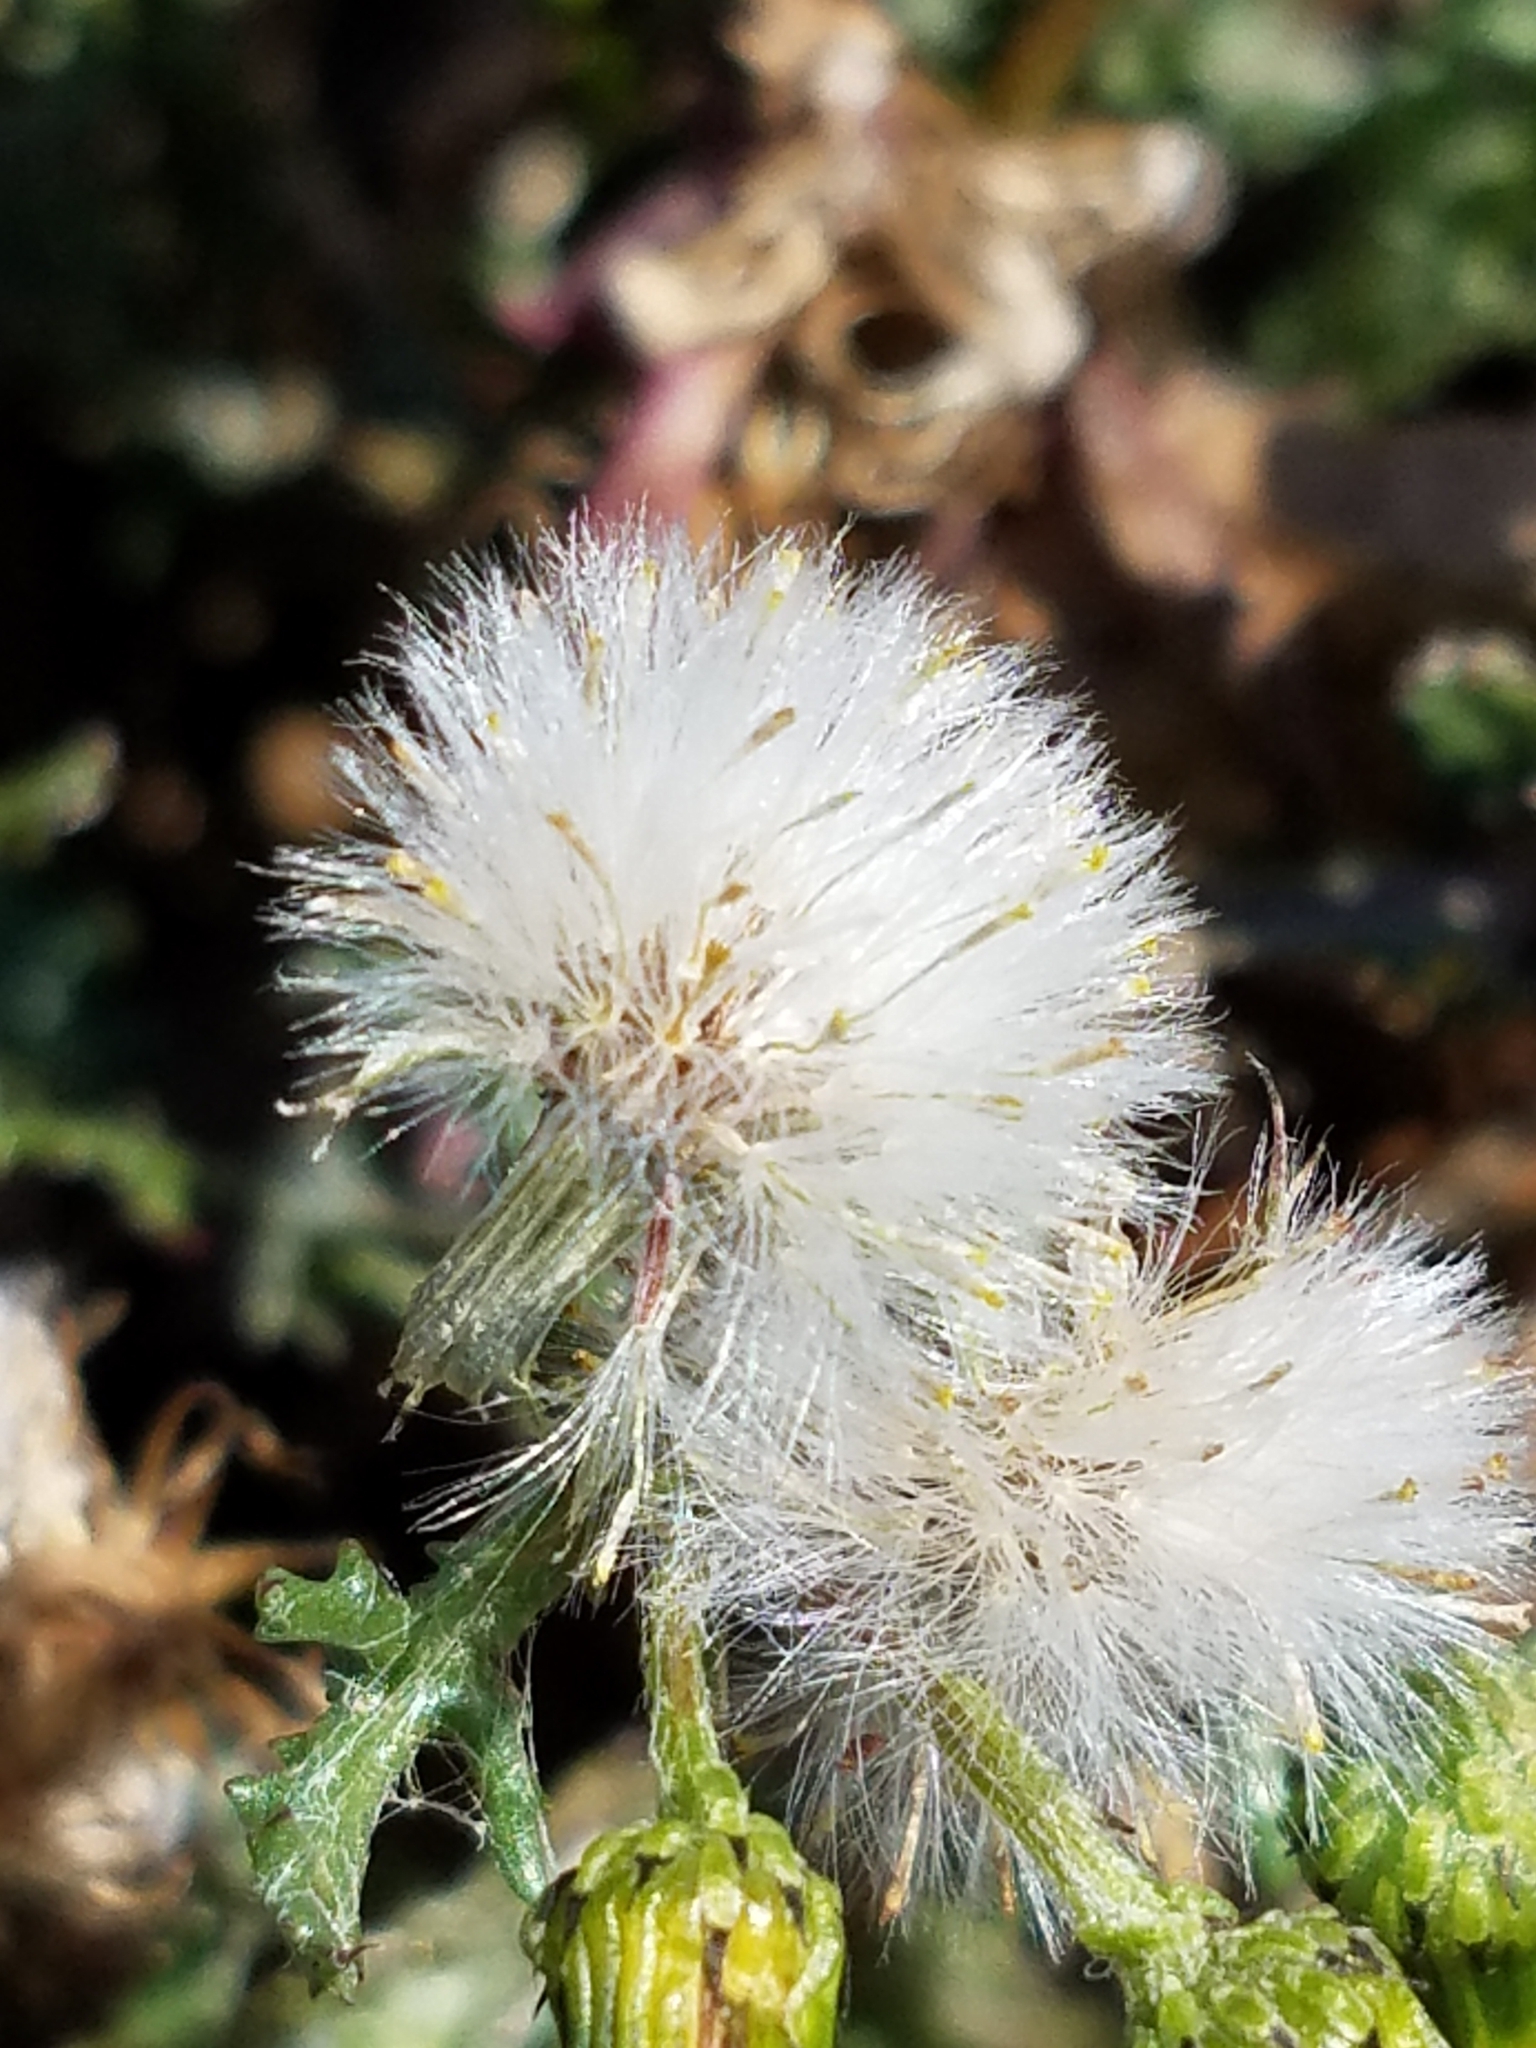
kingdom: Plantae
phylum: Tracheophyta
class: Magnoliopsida
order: Asterales
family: Asteraceae
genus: Senecio
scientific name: Senecio vulgaris
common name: Old-man-in-the-spring
